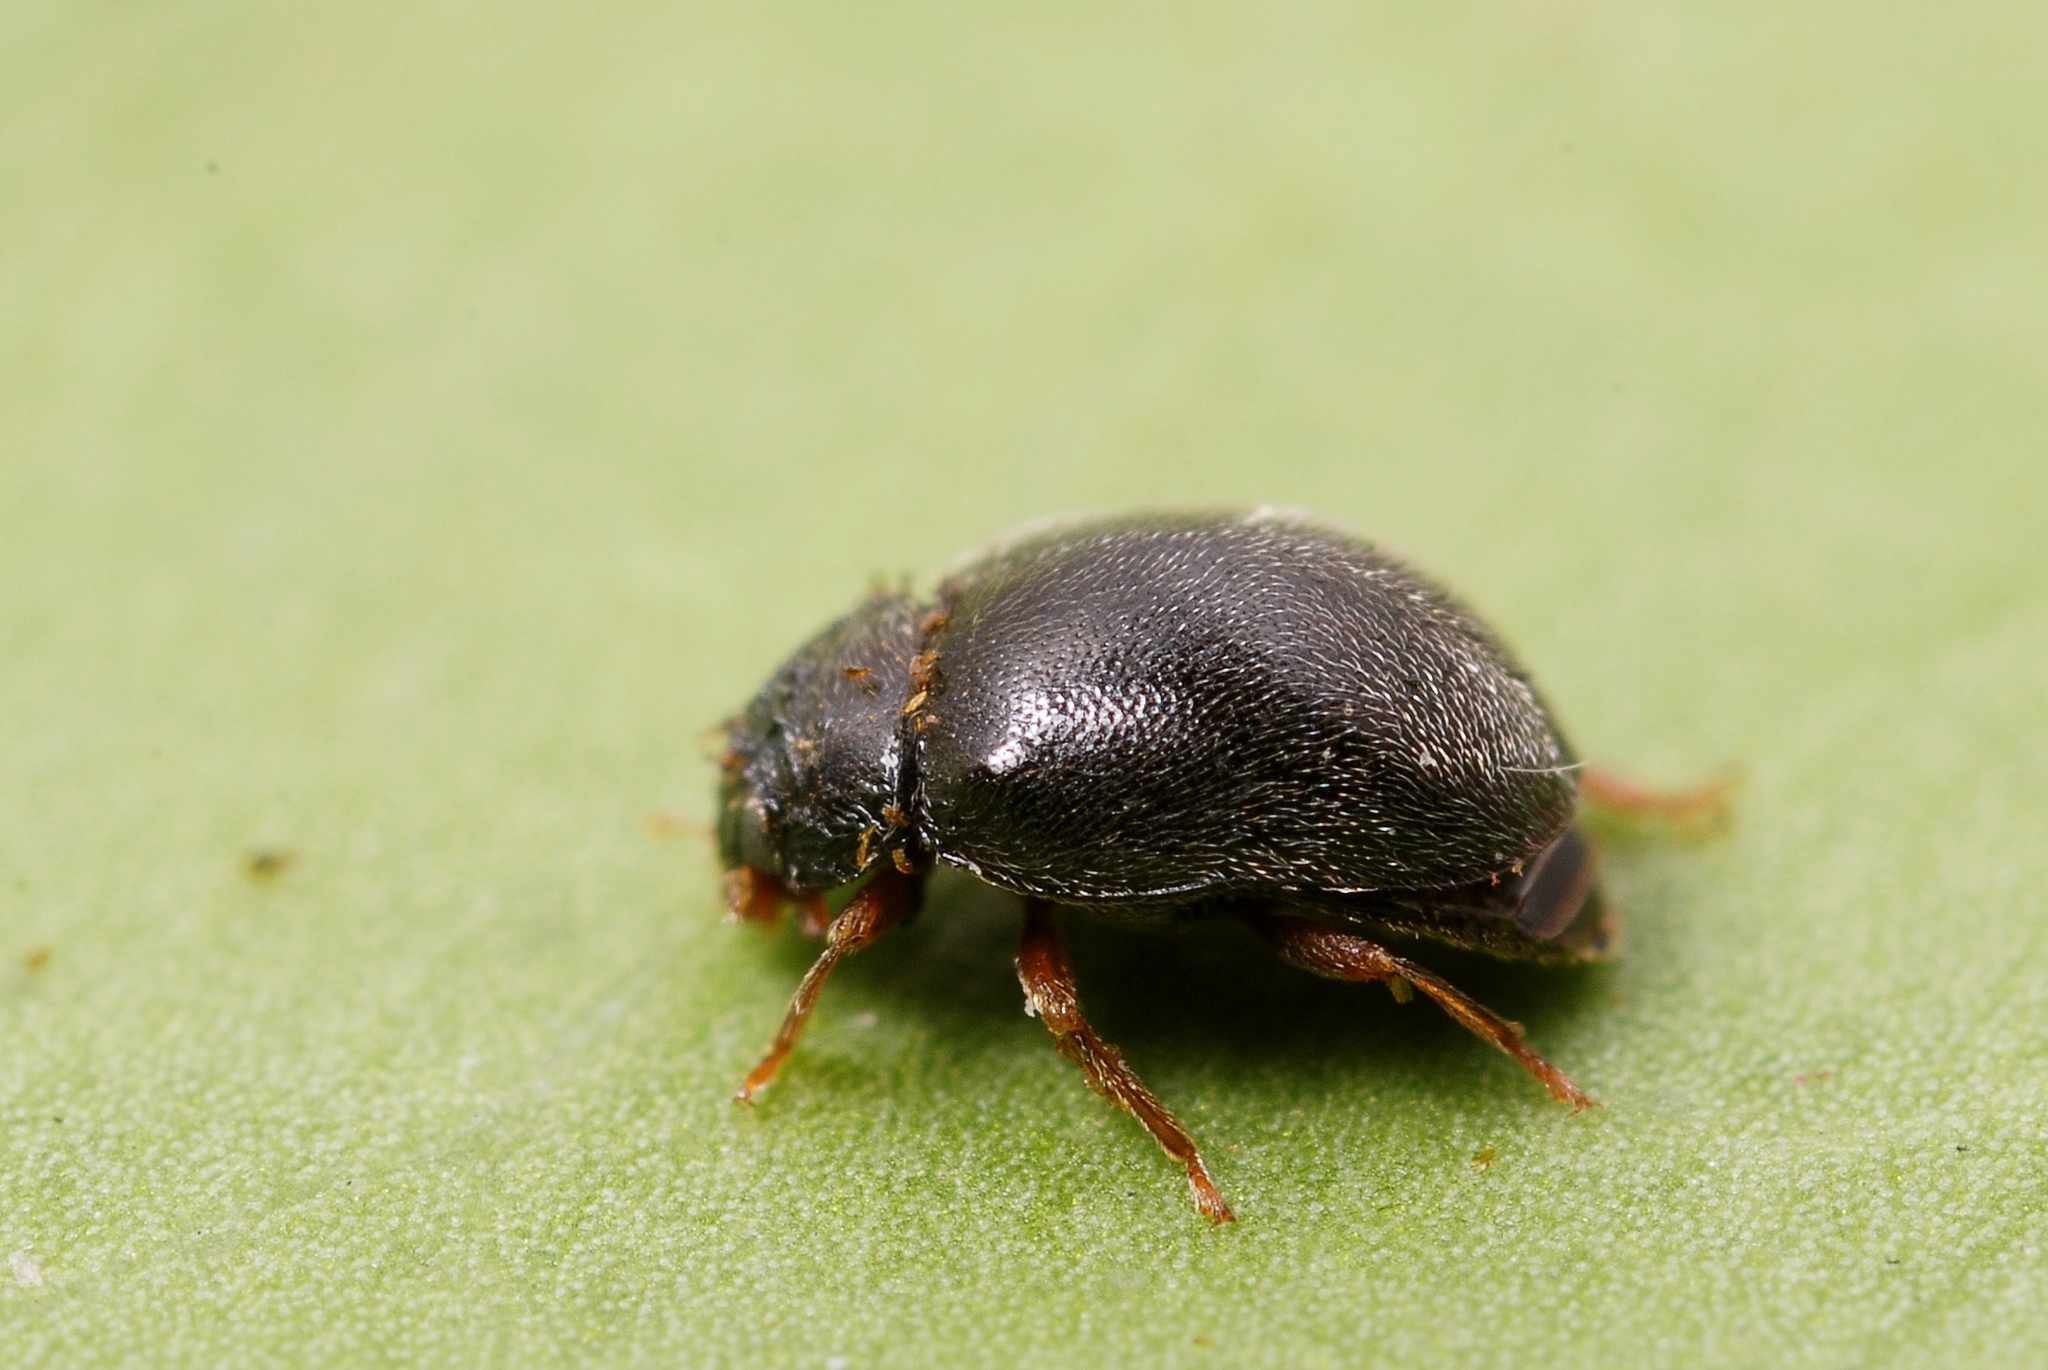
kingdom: Animalia
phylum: Arthropoda
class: Insecta
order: Coleoptera
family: Coccinellidae
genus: Scymnus
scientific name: Scymnus rubromaculatus
